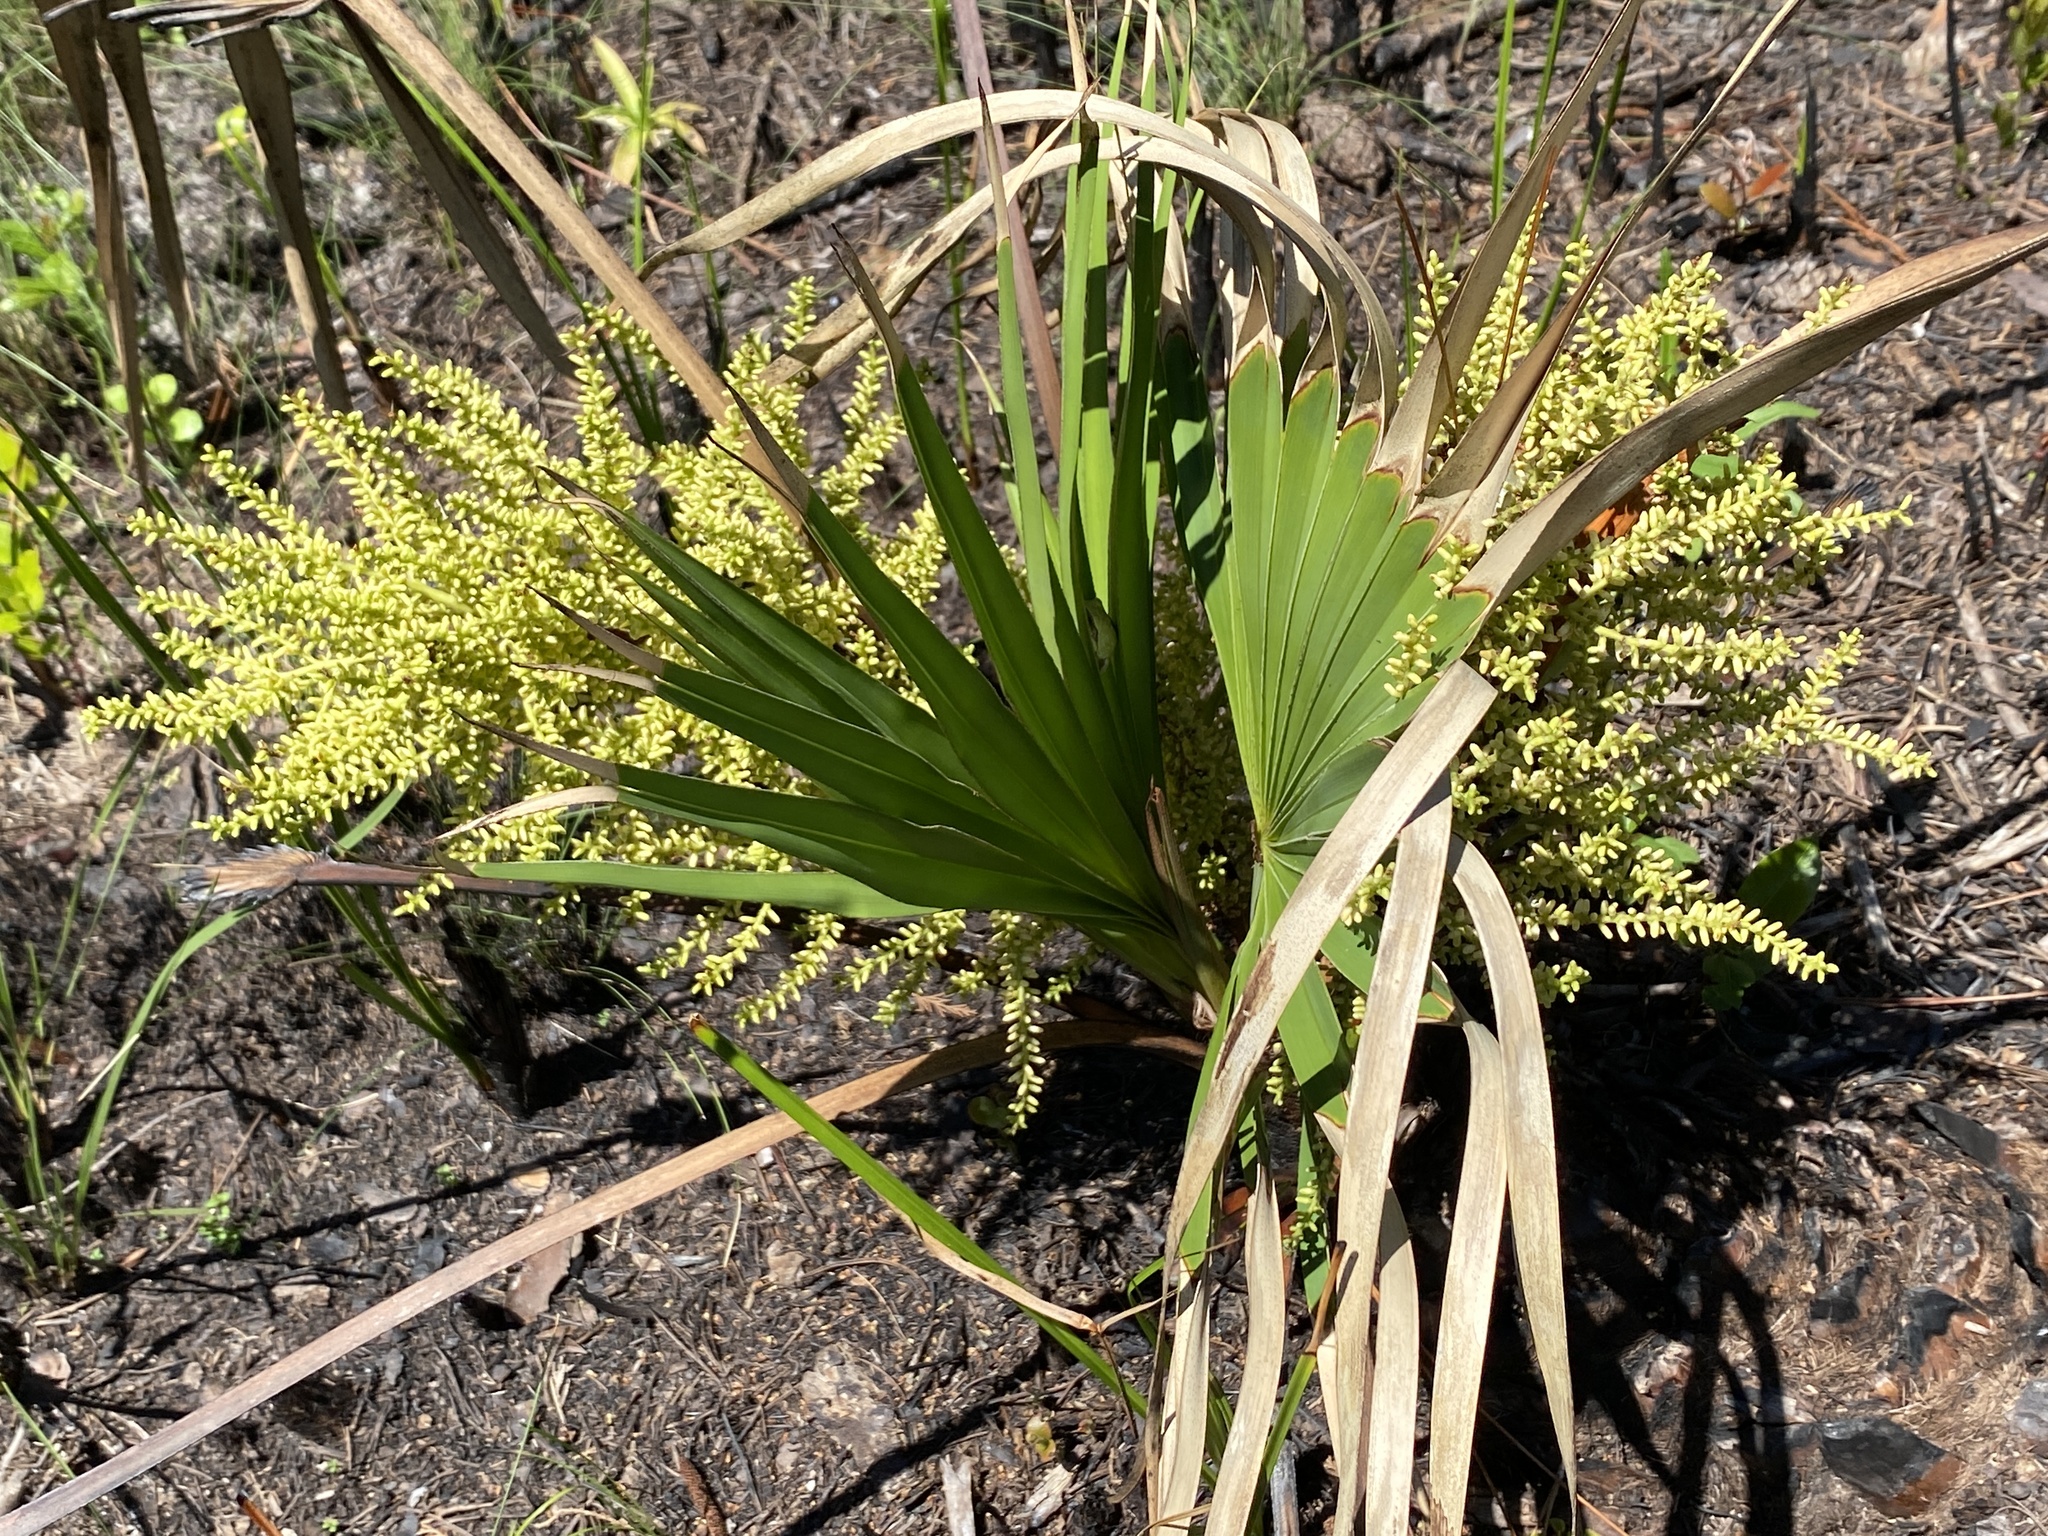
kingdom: Plantae
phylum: Tracheophyta
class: Liliopsida
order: Arecales
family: Arecaceae
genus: Serenoa
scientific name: Serenoa repens
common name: Saw-palmetto
